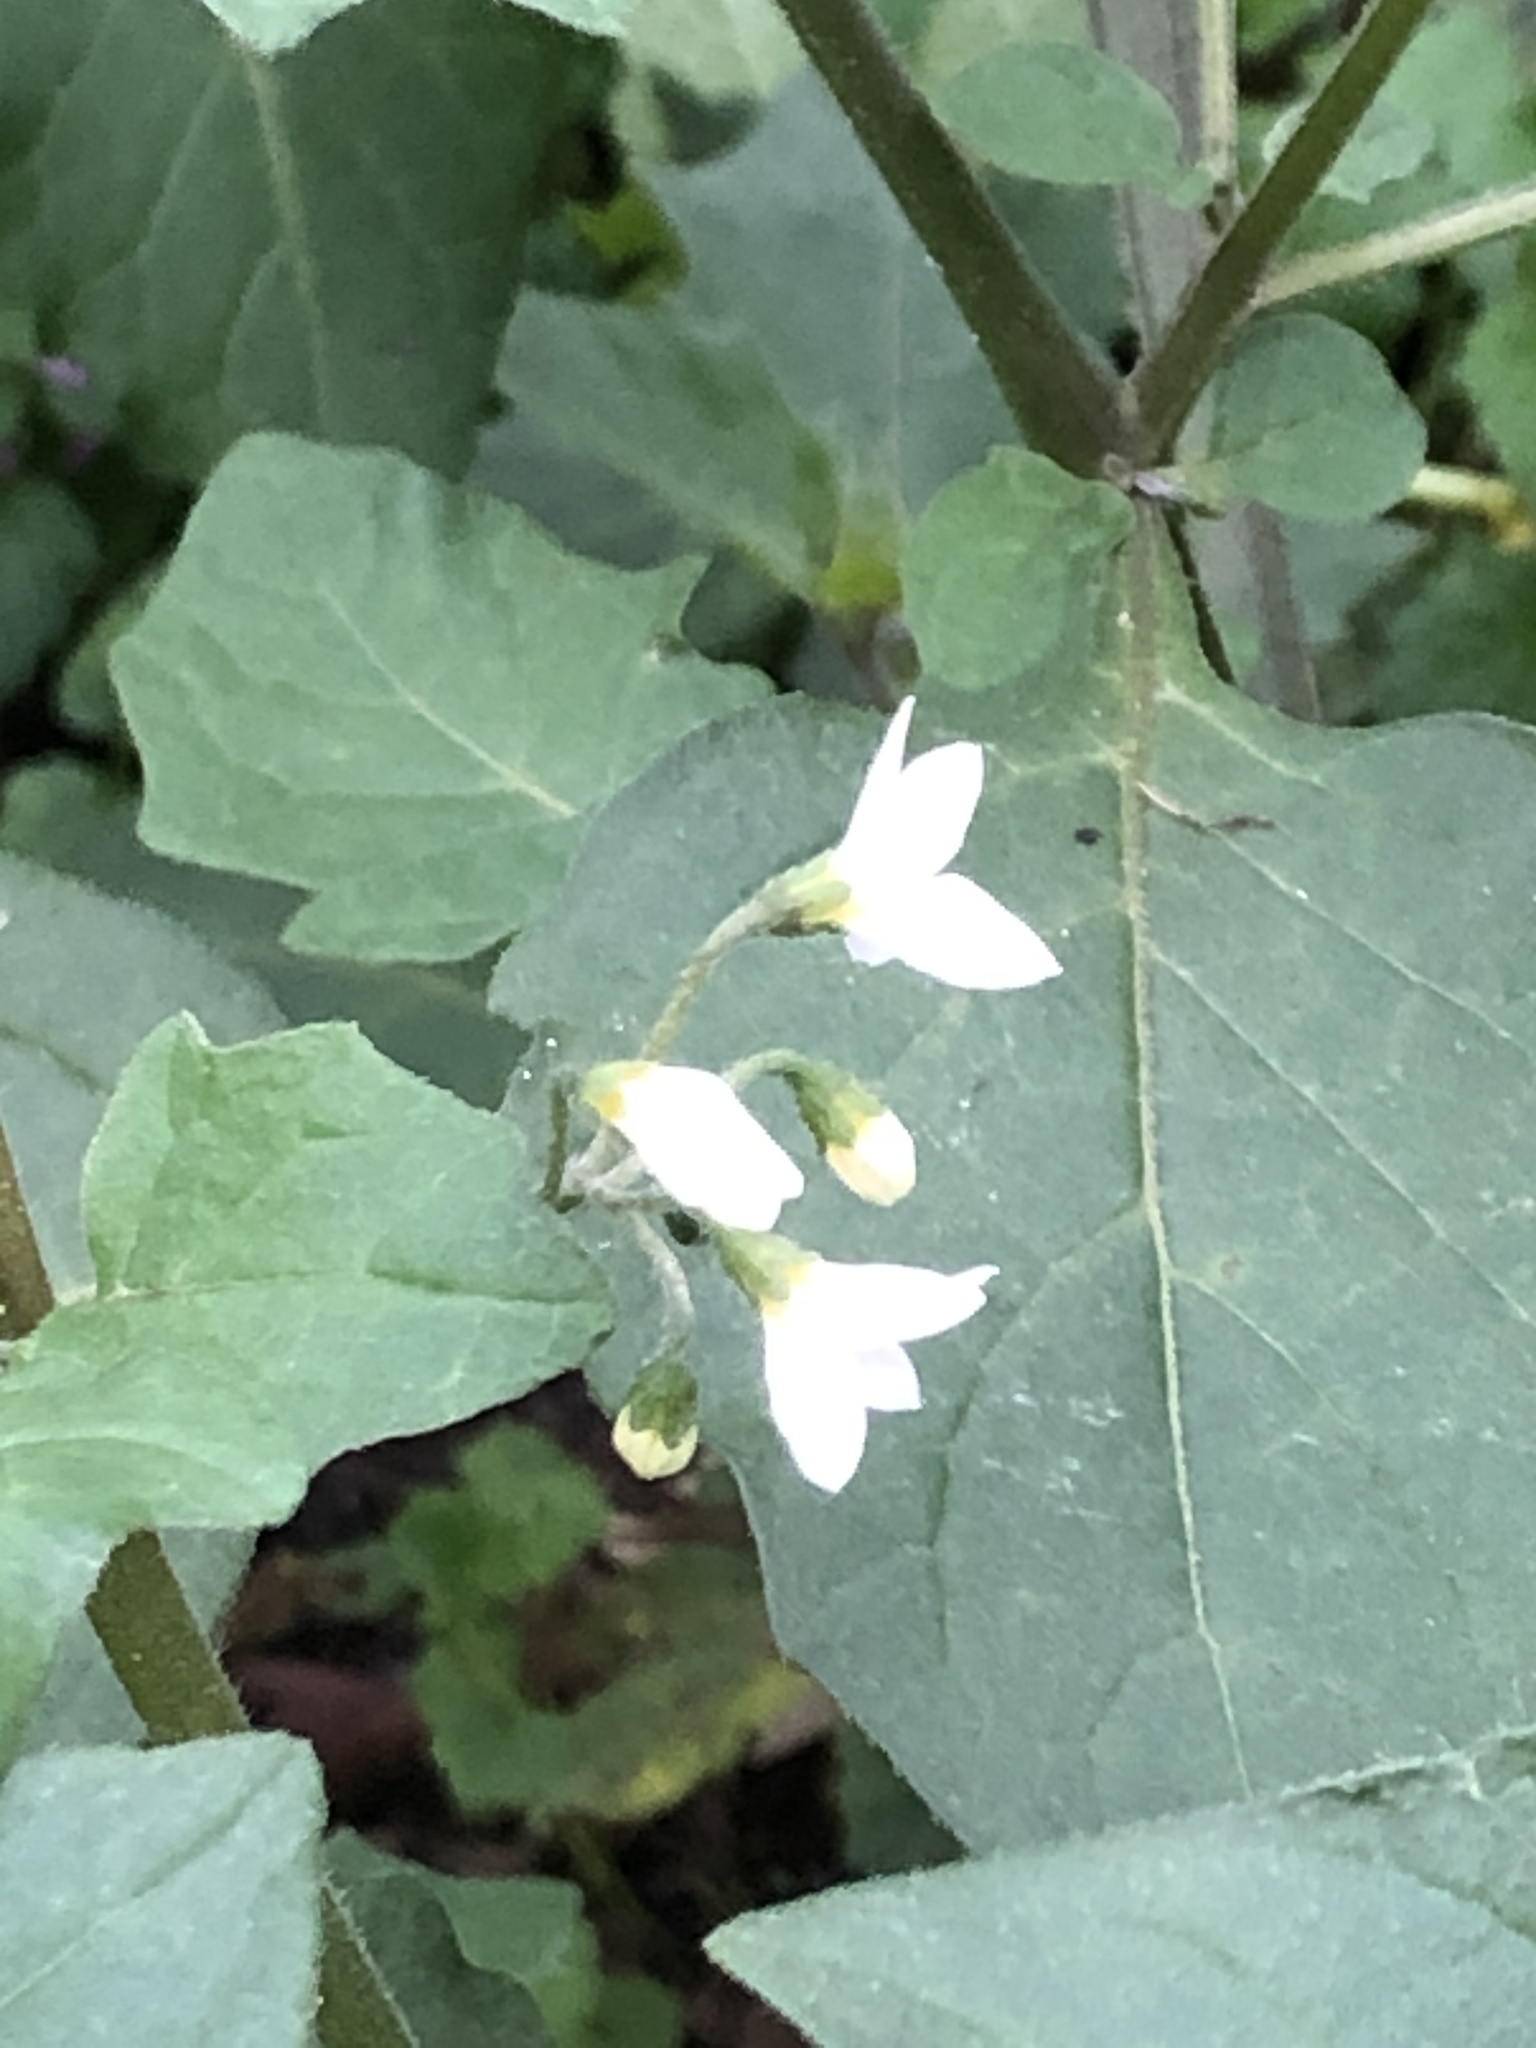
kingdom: Plantae
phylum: Tracheophyta
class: Magnoliopsida
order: Solanales
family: Solanaceae
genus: Solanum
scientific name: Solanum nigrum
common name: Black nightshade
